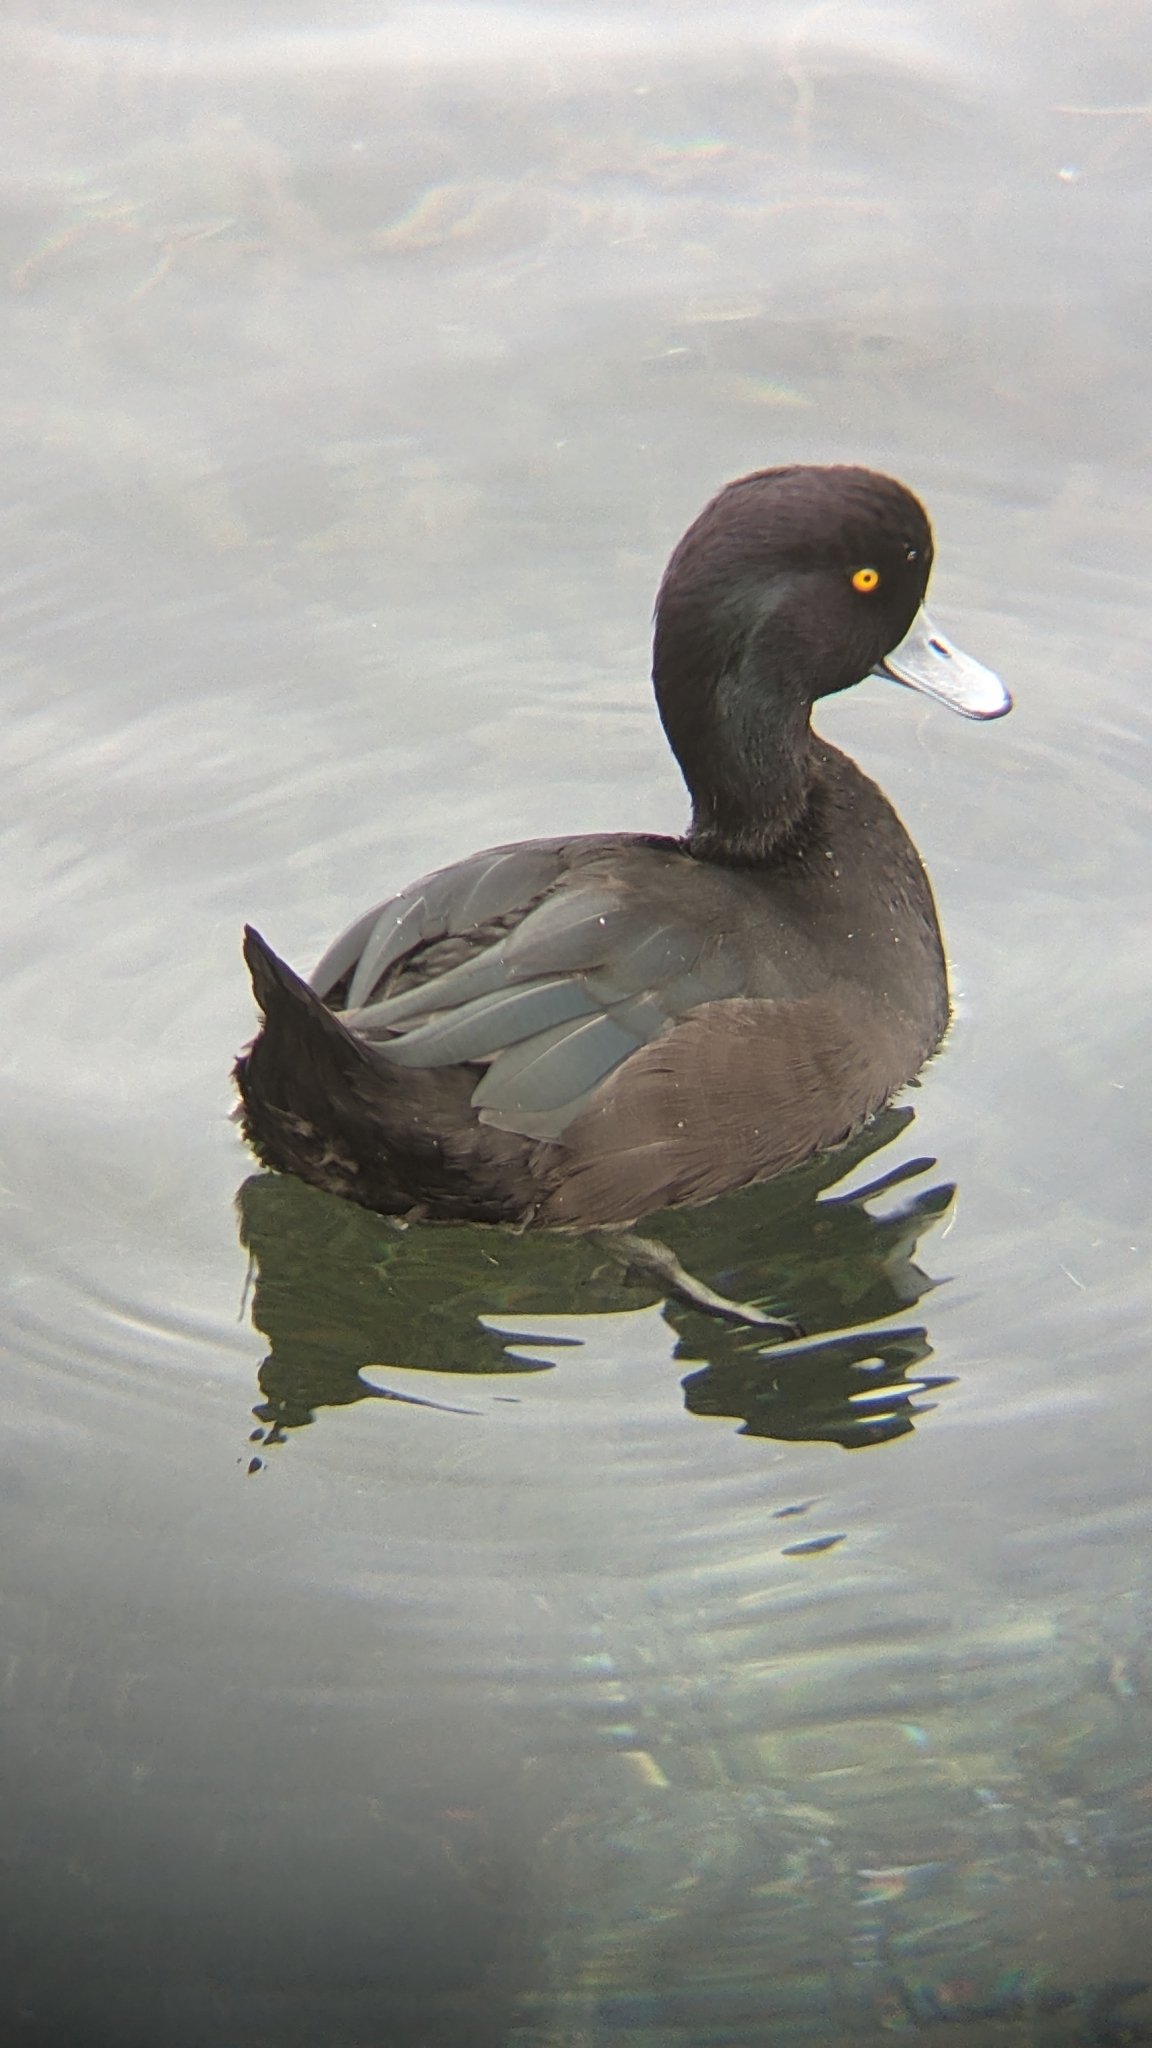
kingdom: Animalia
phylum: Chordata
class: Aves
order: Anseriformes
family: Anatidae
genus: Aythya
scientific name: Aythya novaeseelandiae
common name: New zealand scaup
